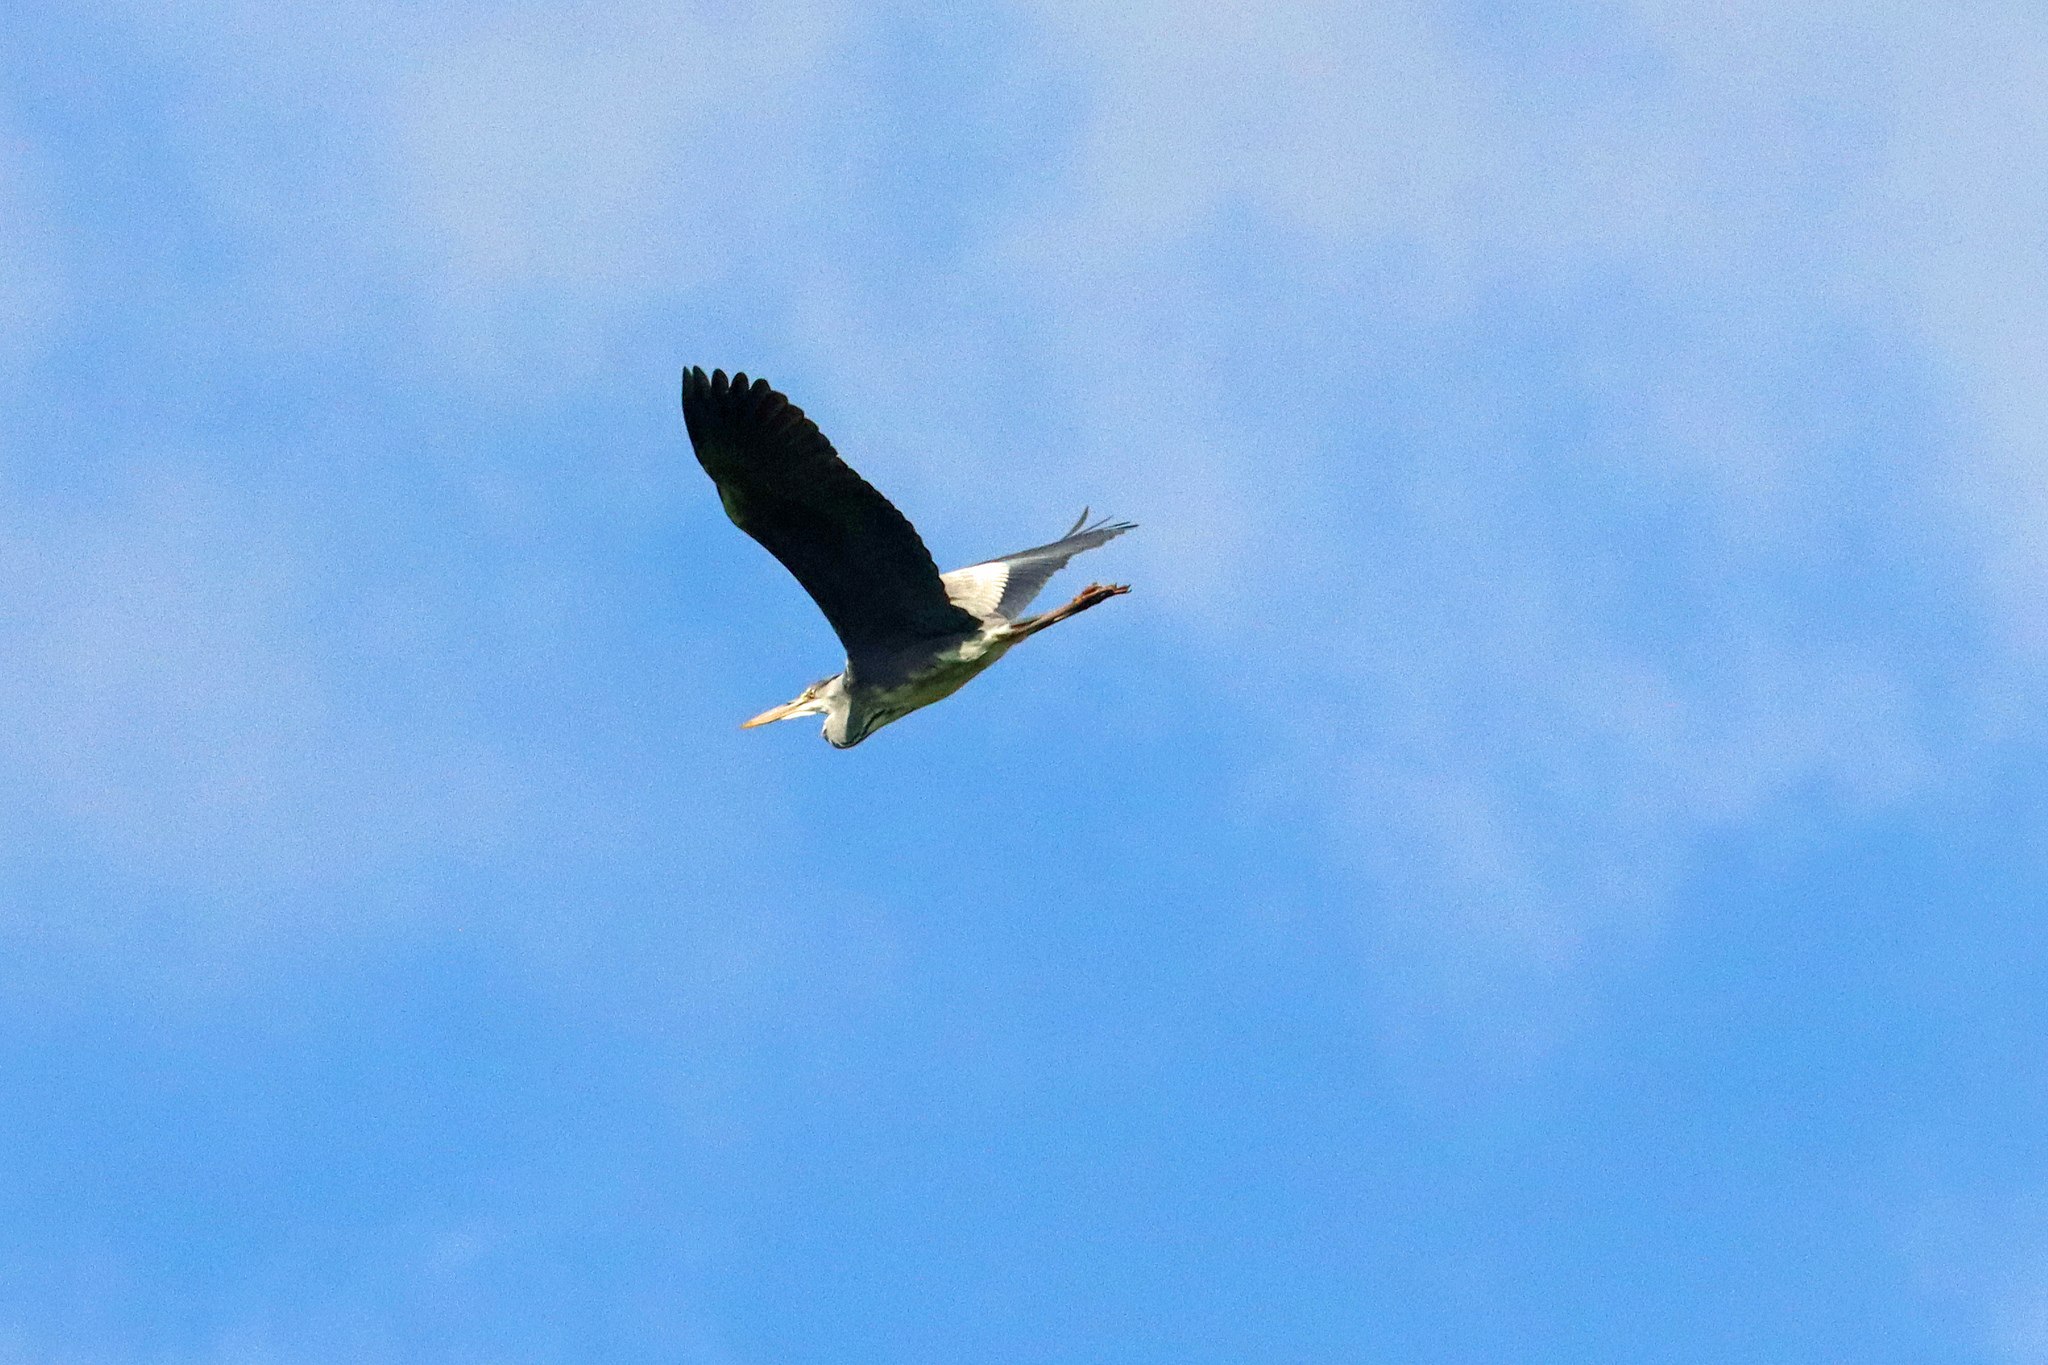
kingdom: Animalia
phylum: Chordata
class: Aves
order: Pelecaniformes
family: Ardeidae
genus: Ardea
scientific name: Ardea cinerea
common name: Grey heron
